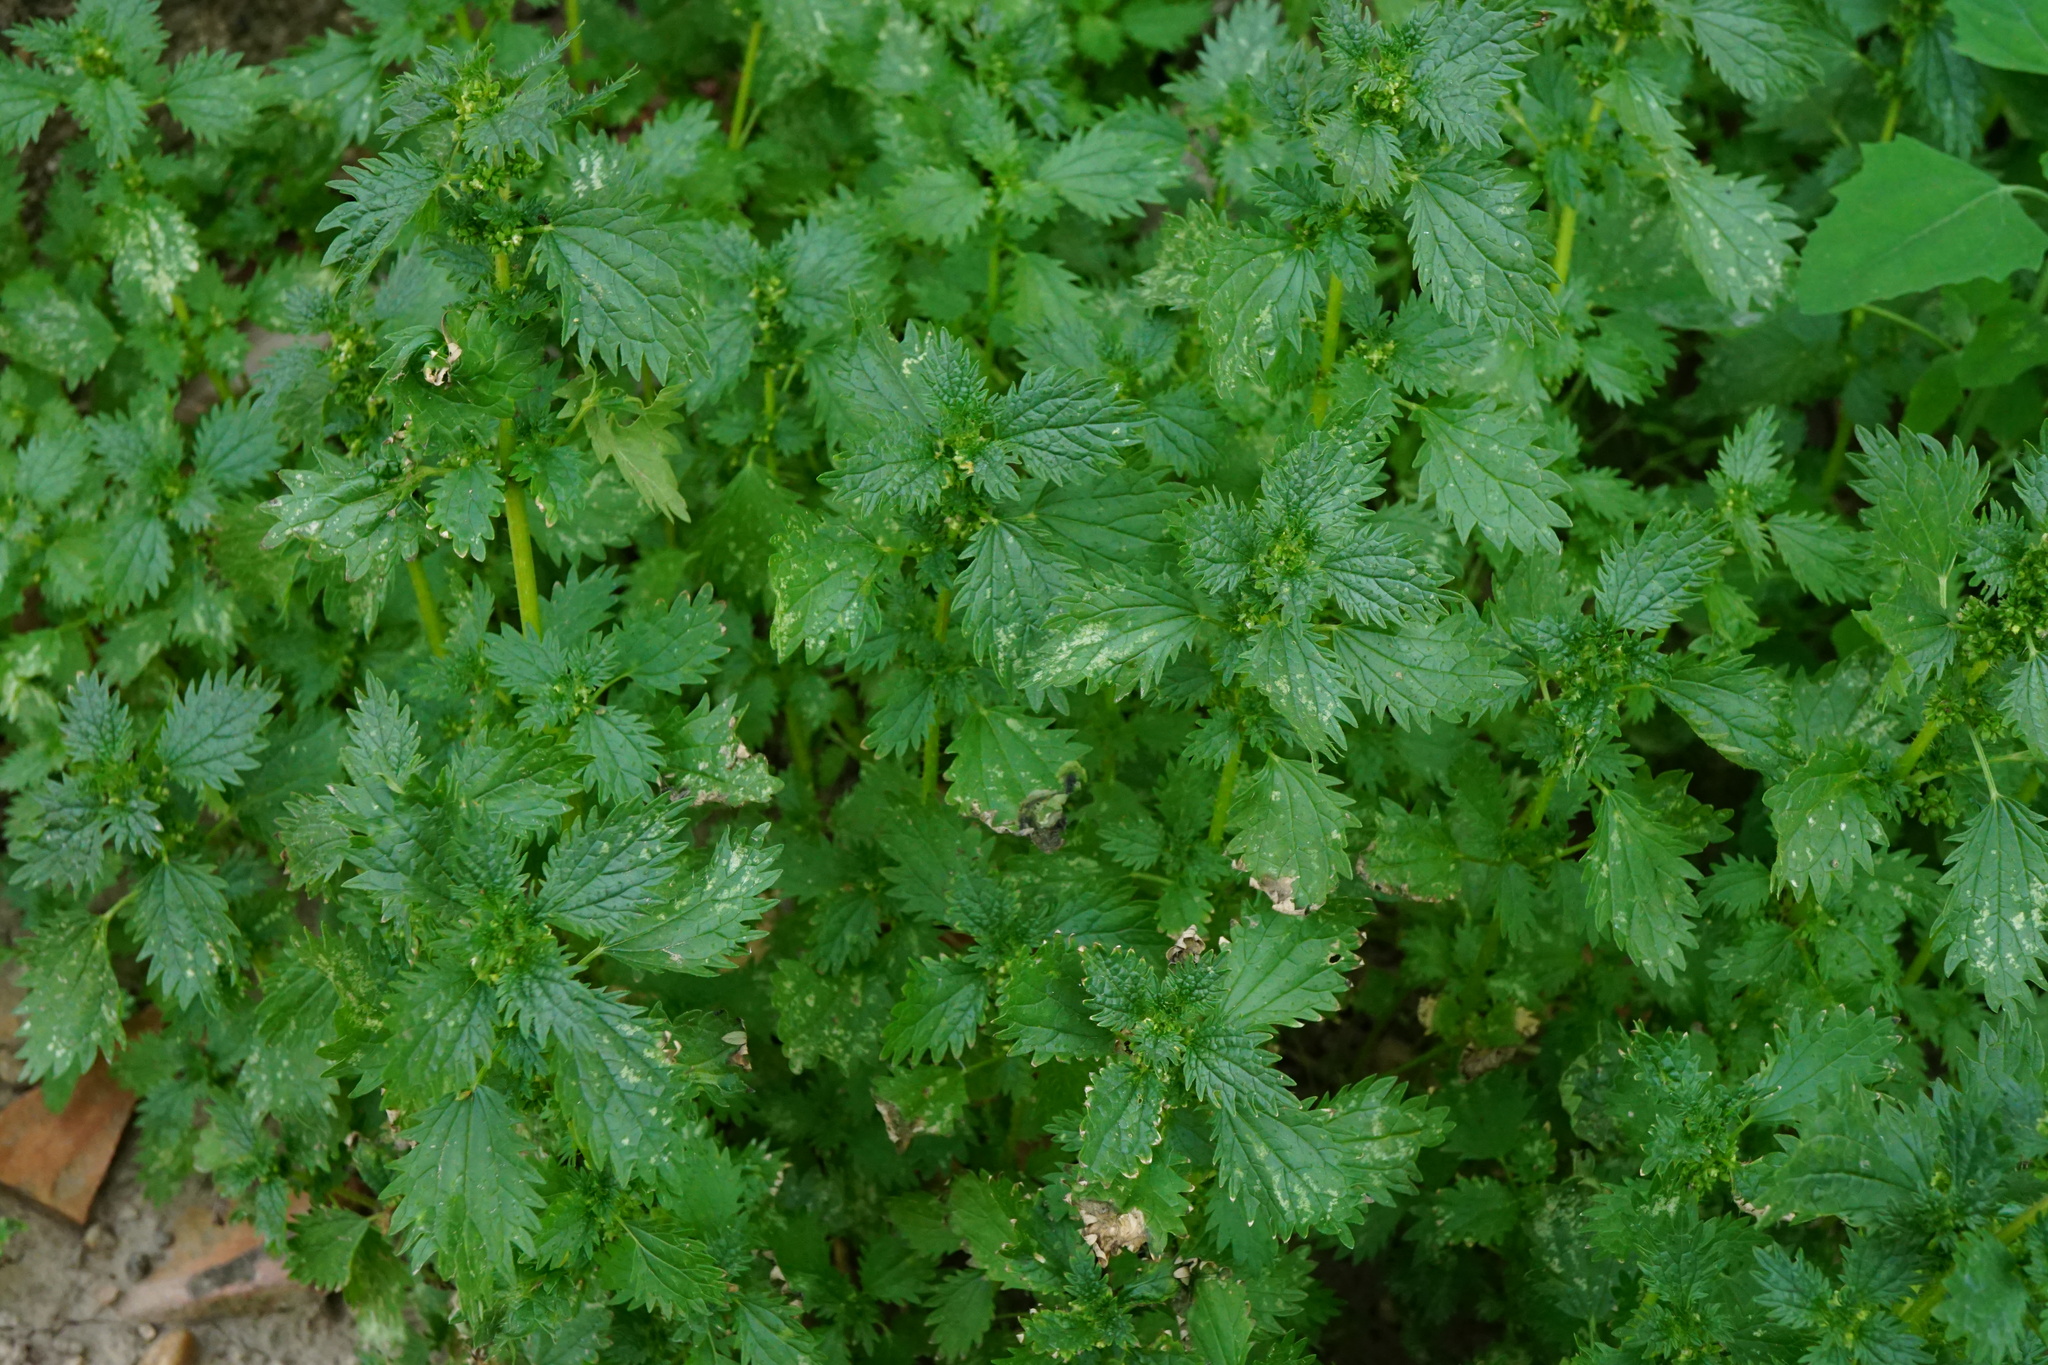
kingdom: Plantae
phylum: Tracheophyta
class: Magnoliopsida
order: Rosales
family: Urticaceae
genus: Urtica
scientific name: Urtica urens
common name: Dwarf nettle
